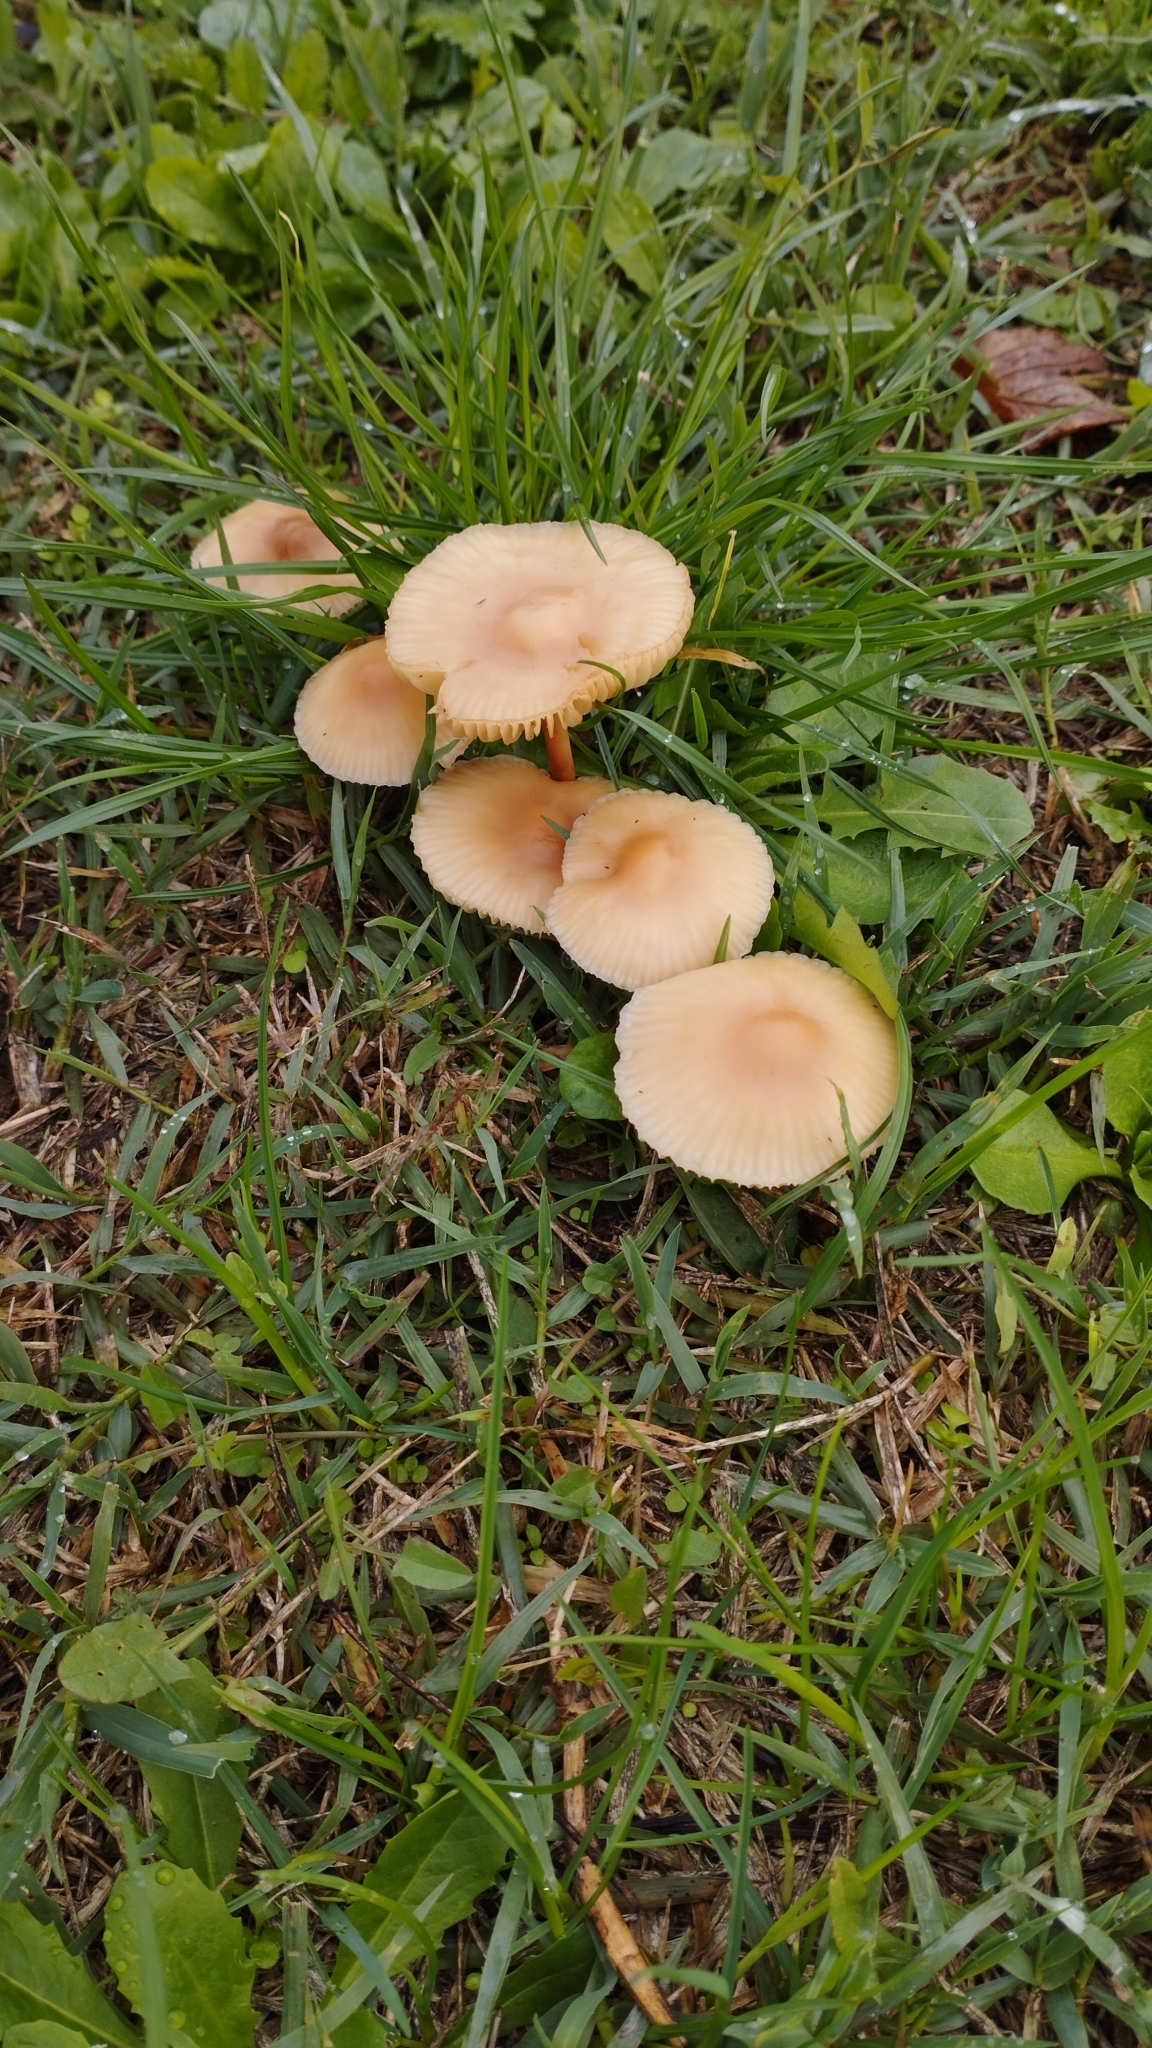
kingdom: Fungi
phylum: Basidiomycota
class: Agaricomycetes
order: Agaricales
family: Marasmiaceae
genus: Marasmius
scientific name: Marasmius oreades
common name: Fairy ring champignon
